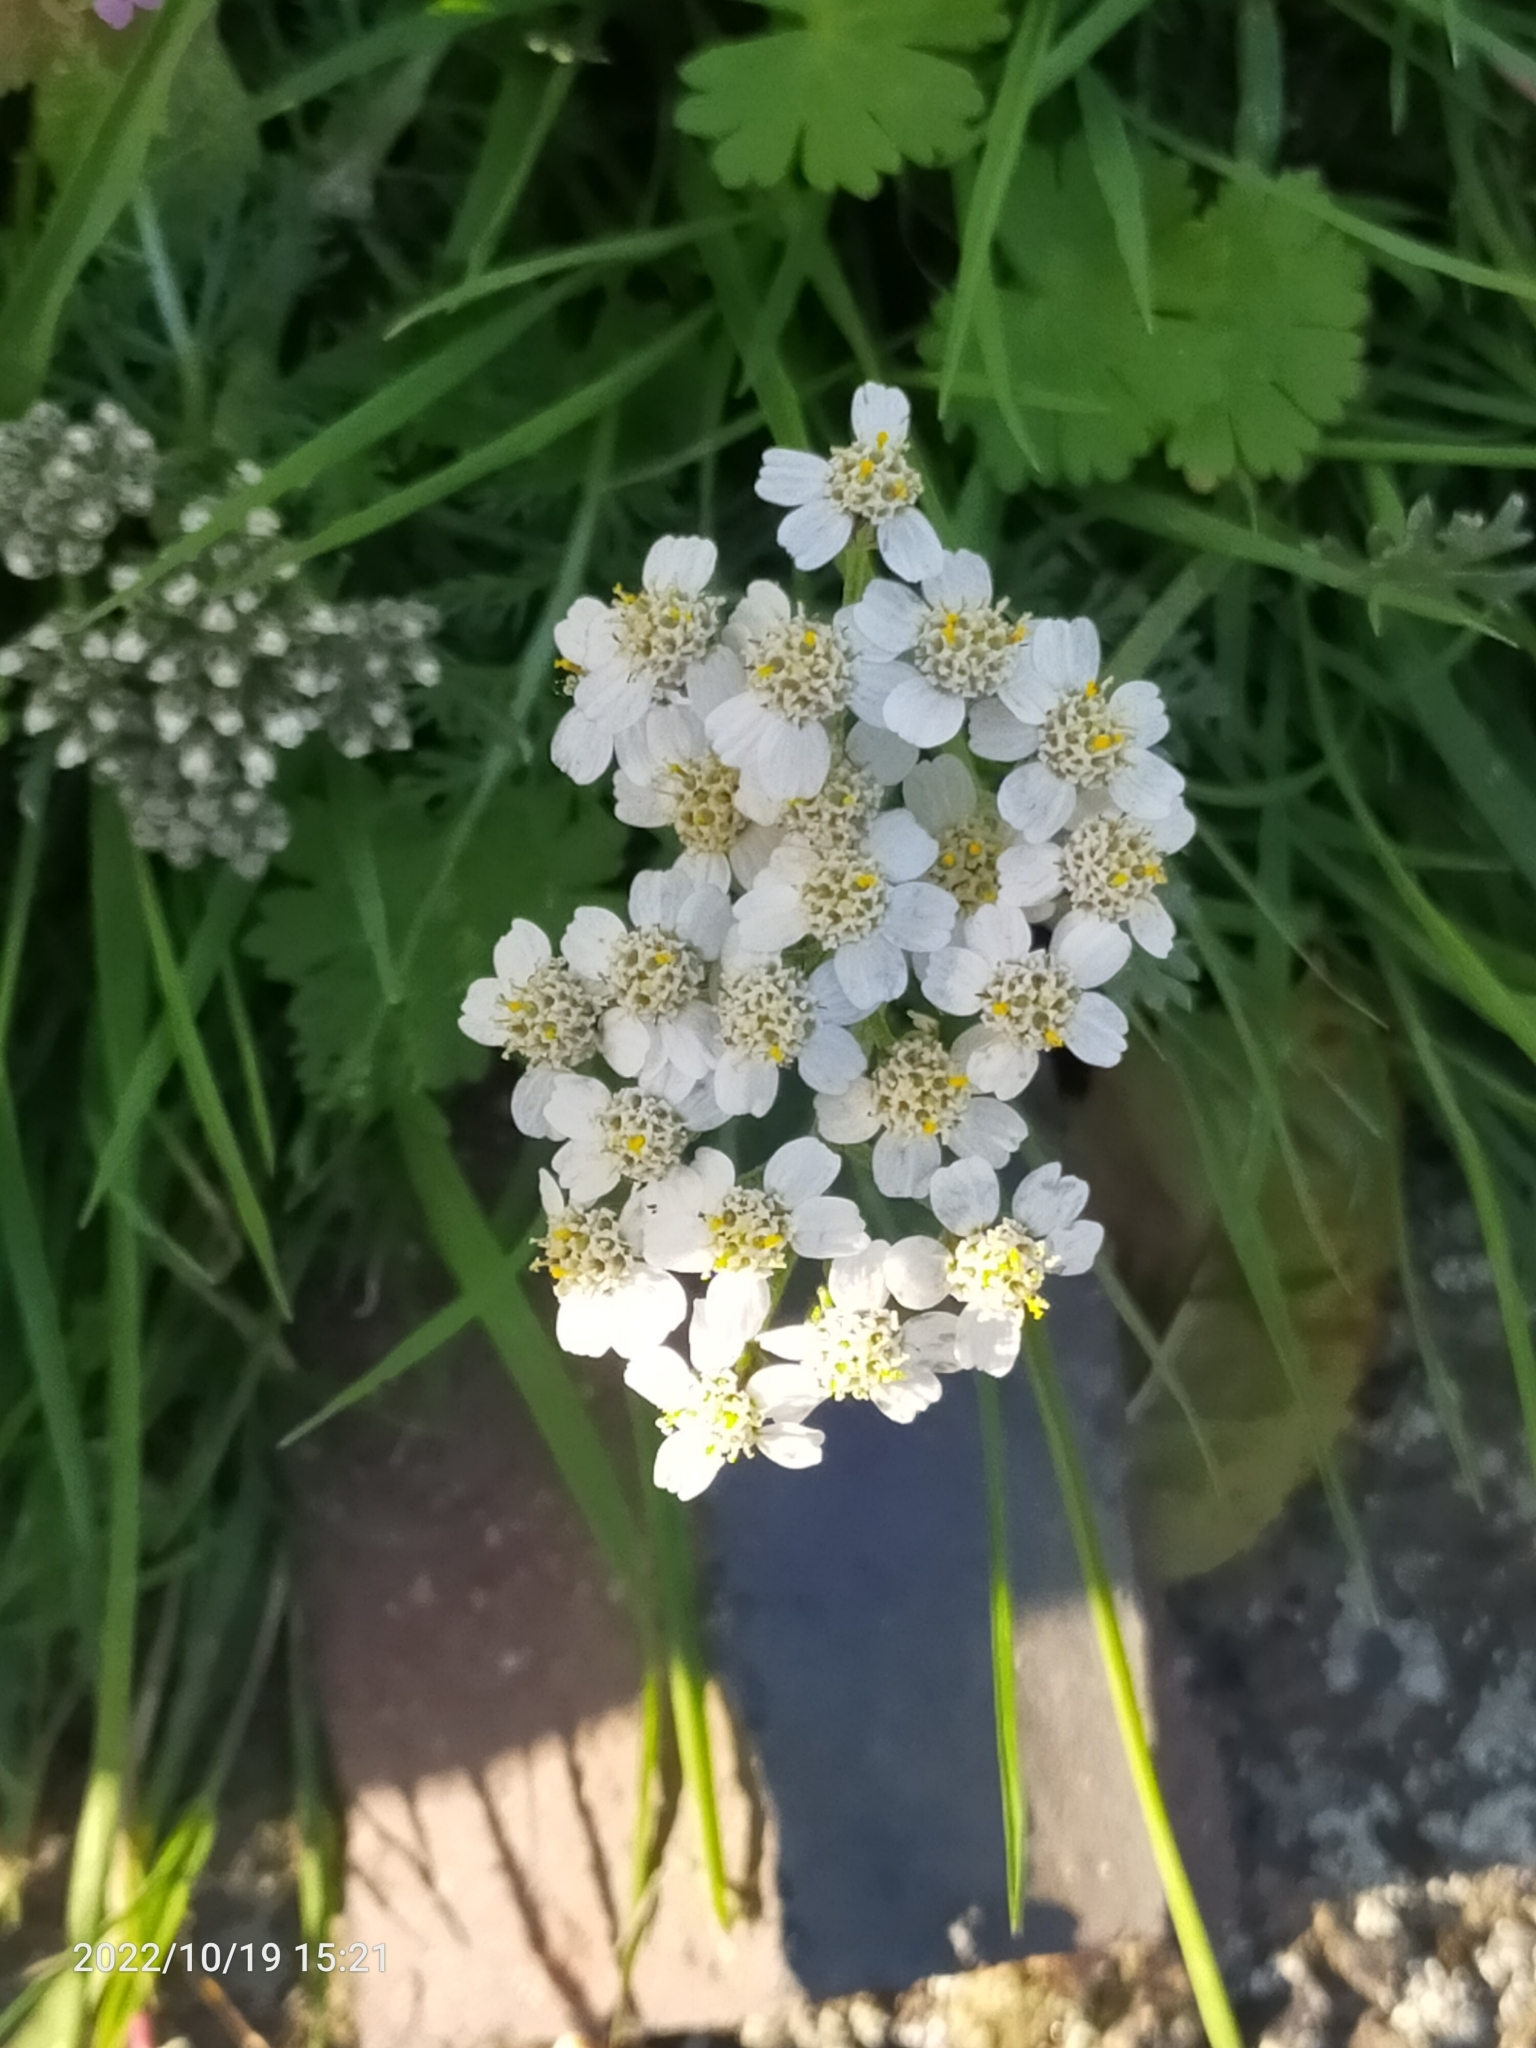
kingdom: Plantae
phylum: Tracheophyta
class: Magnoliopsida
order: Asterales
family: Asteraceae
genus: Achillea
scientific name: Achillea millefolium
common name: Yarrow
